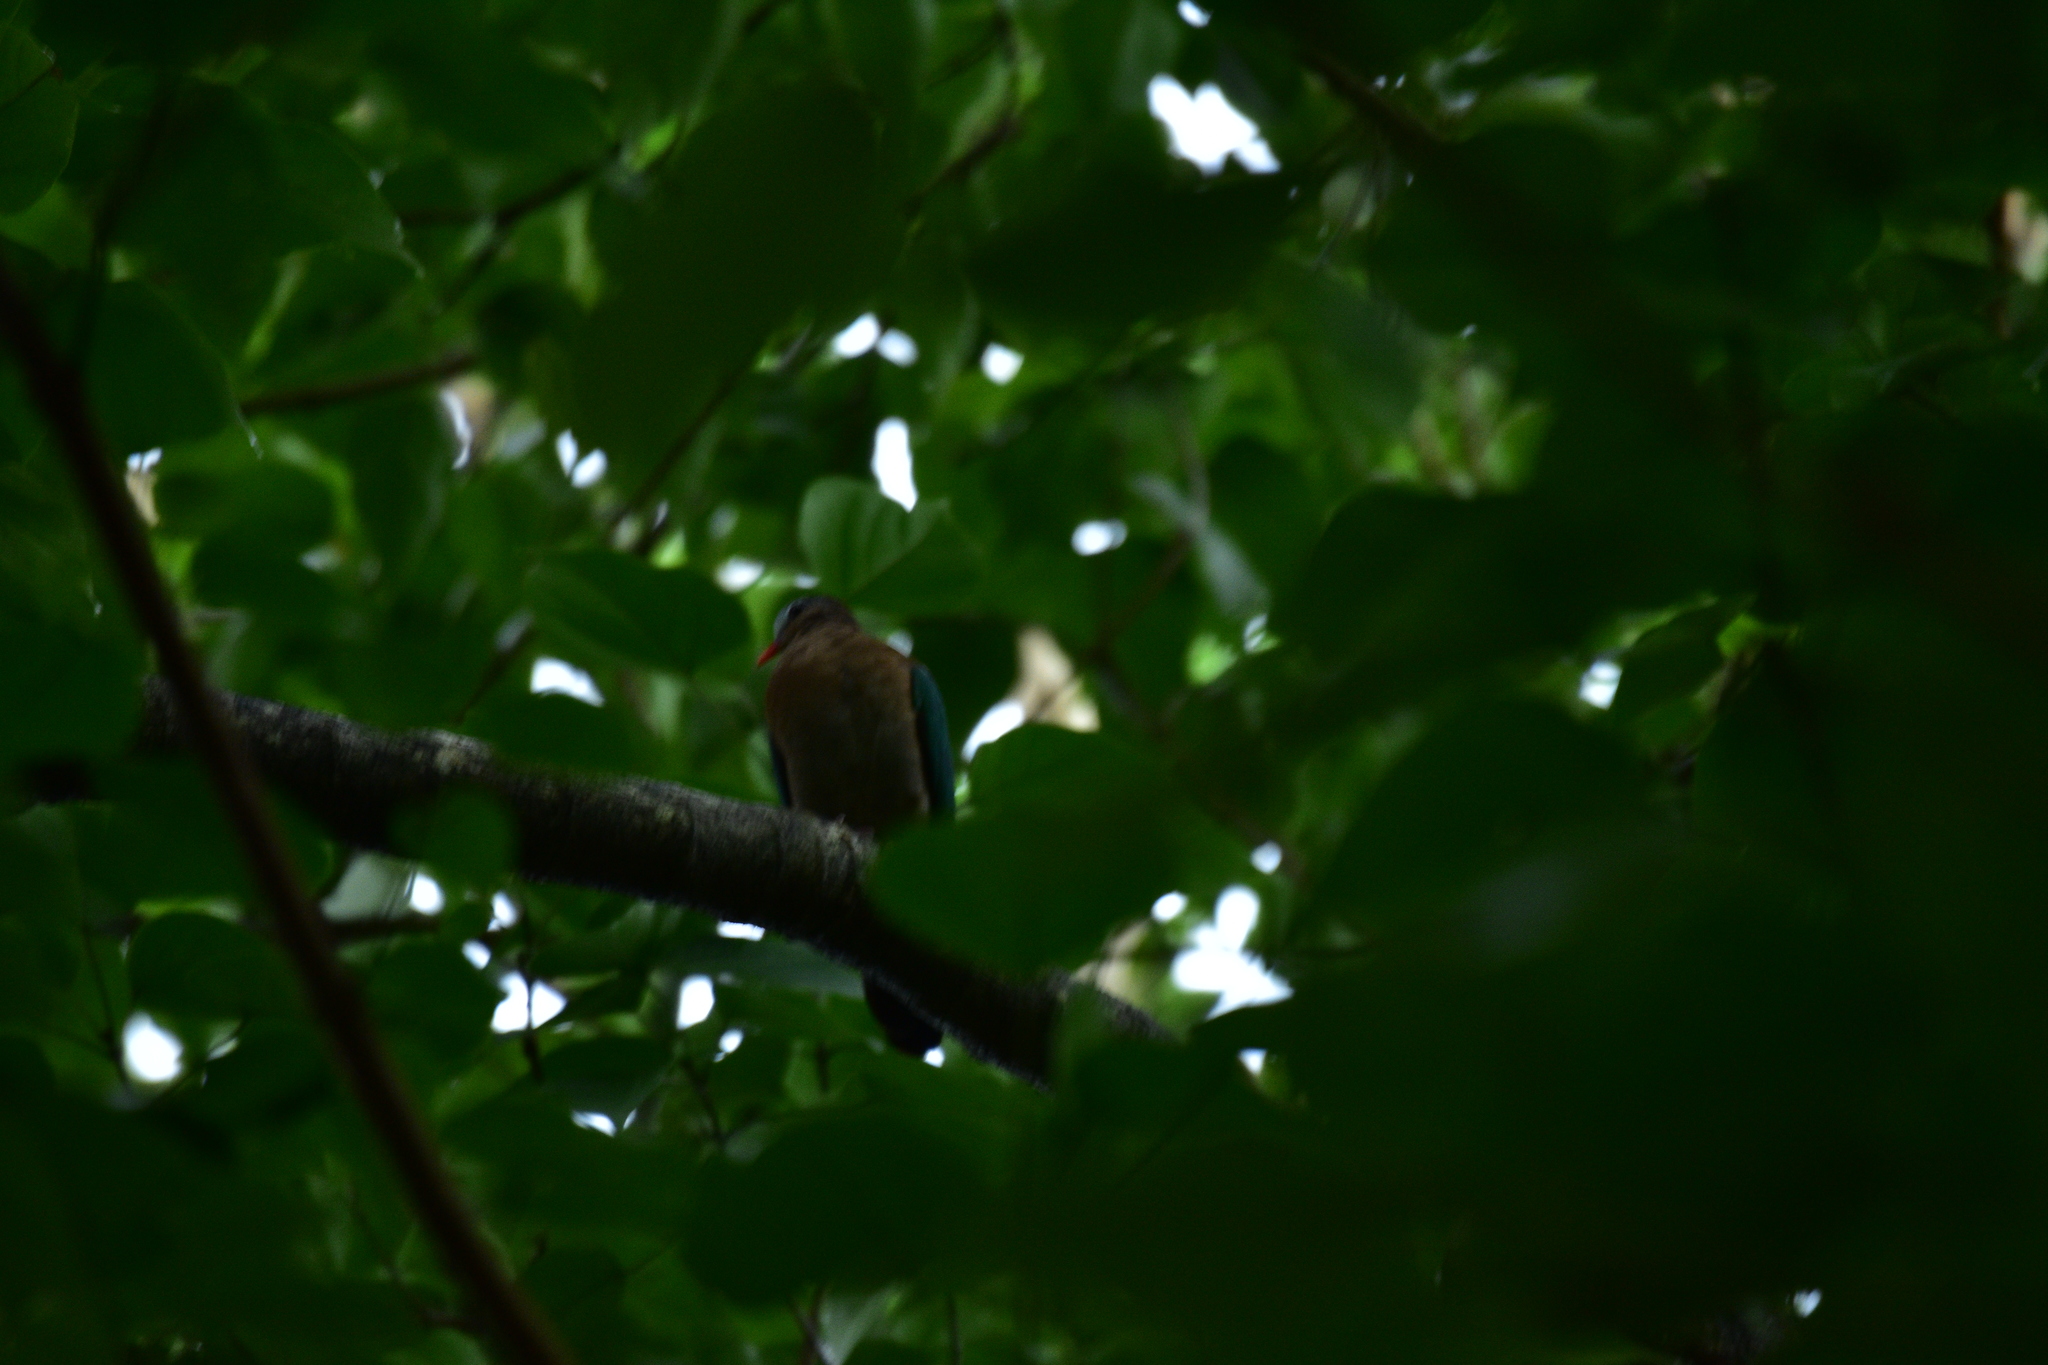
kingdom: Animalia
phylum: Chordata
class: Aves
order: Columbiformes
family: Columbidae
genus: Chalcophaps
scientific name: Chalcophaps indica
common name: Common emerald dove
